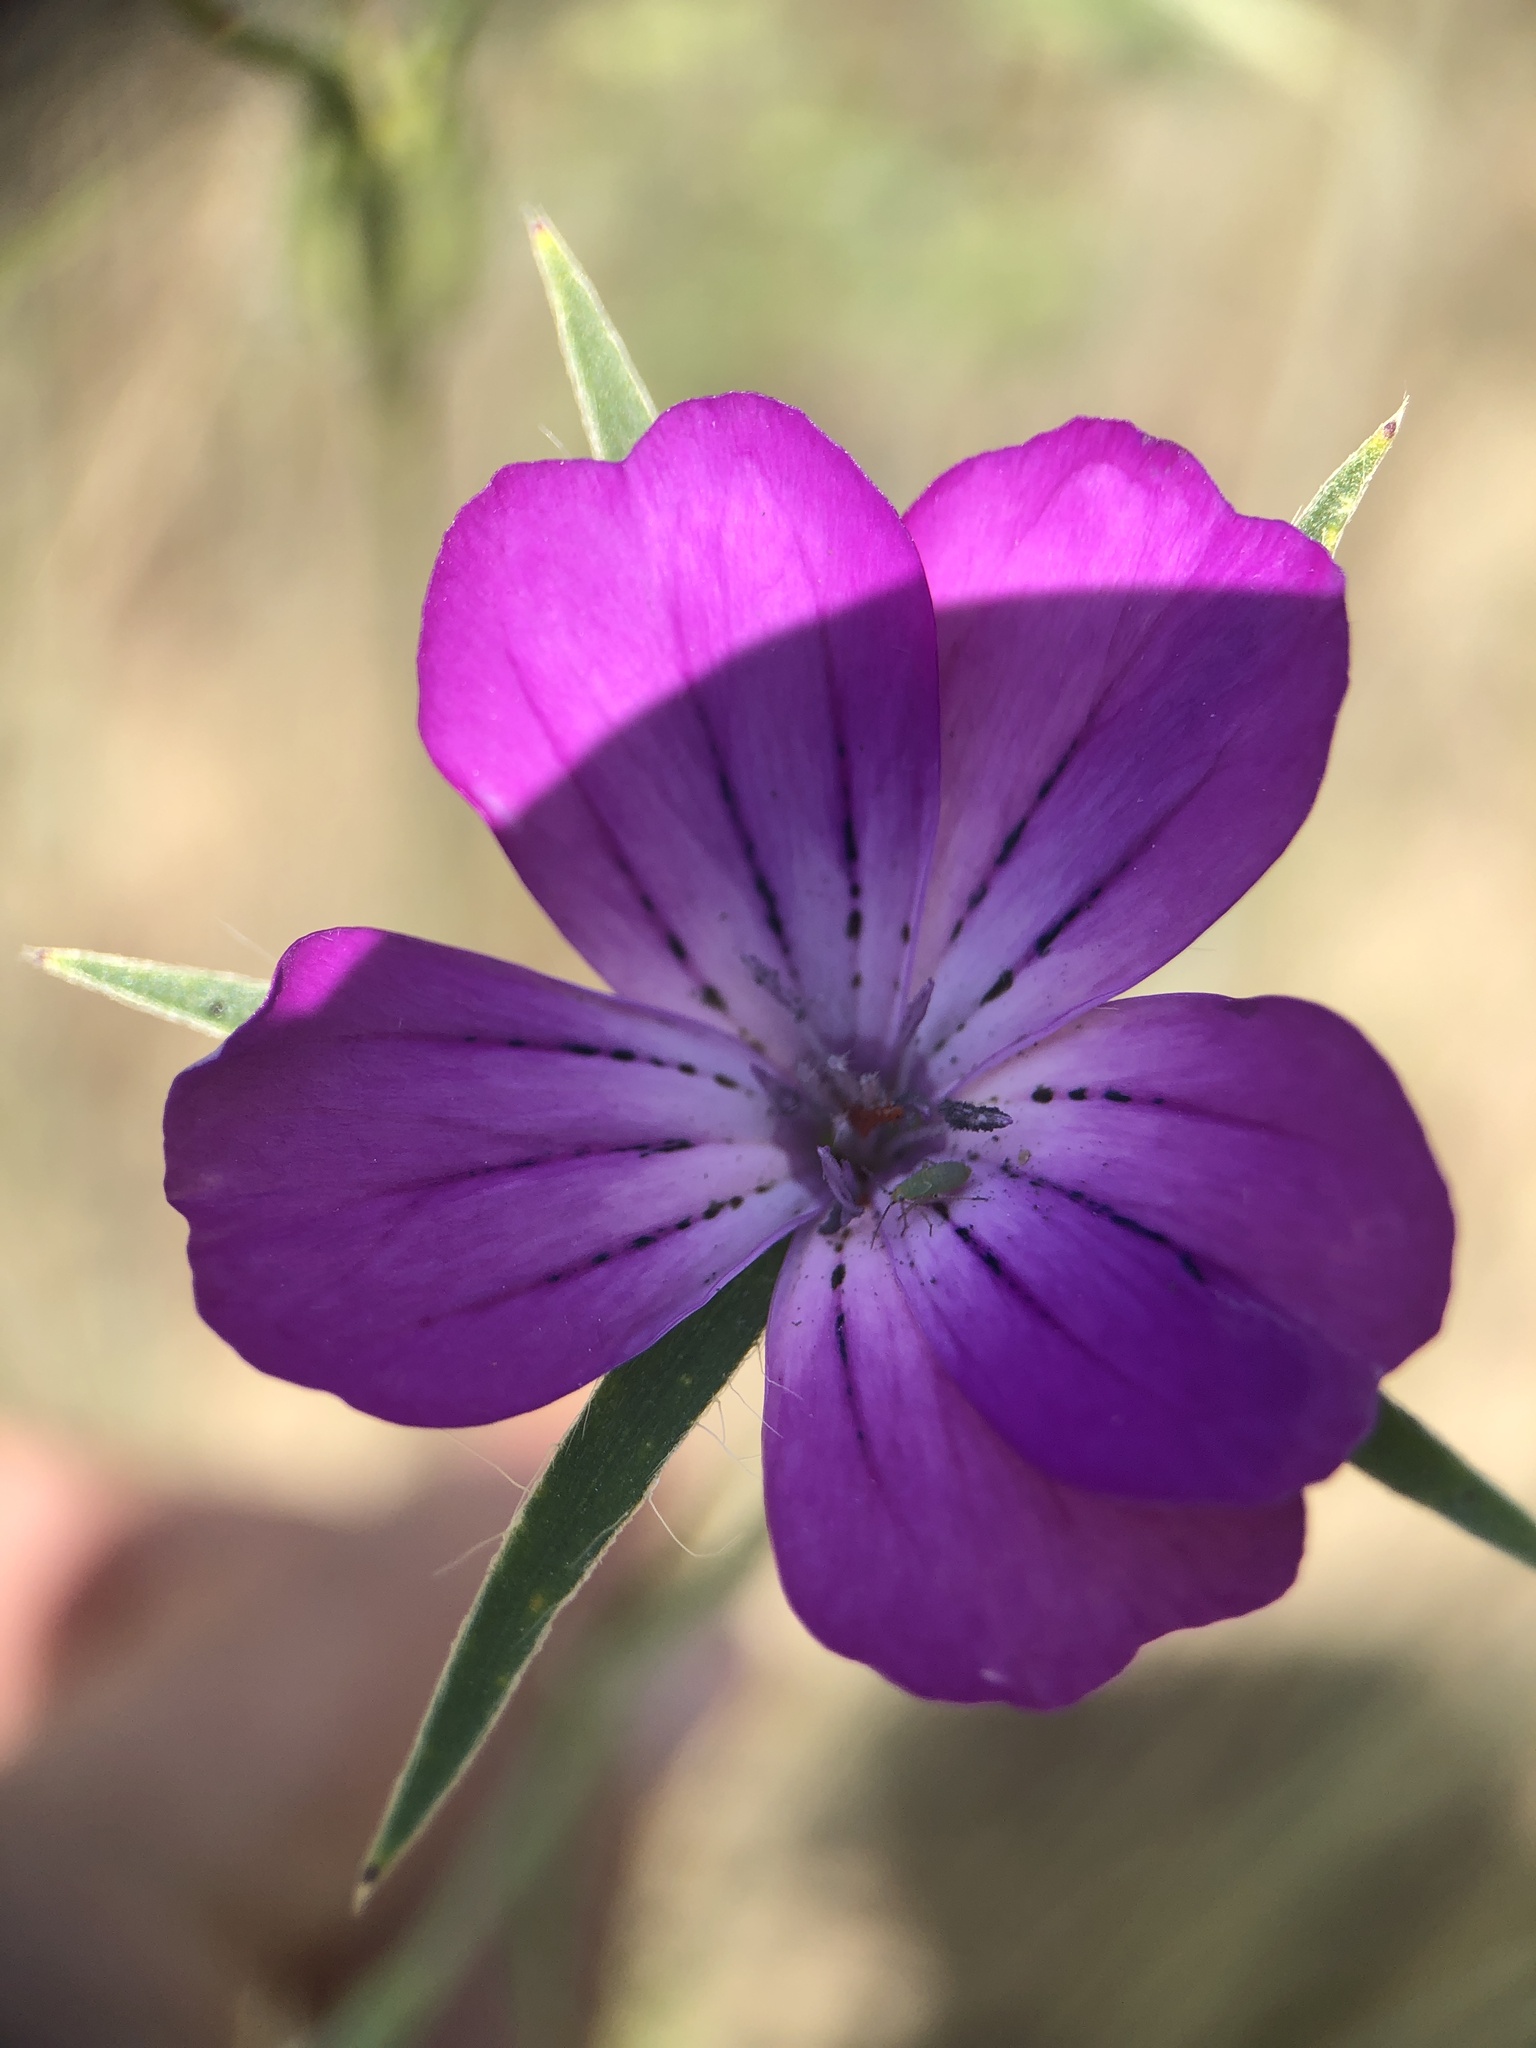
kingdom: Plantae
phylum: Tracheophyta
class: Magnoliopsida
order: Caryophyllales
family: Caryophyllaceae
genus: Agrostemma
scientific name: Agrostemma githago
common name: Common corncockle
